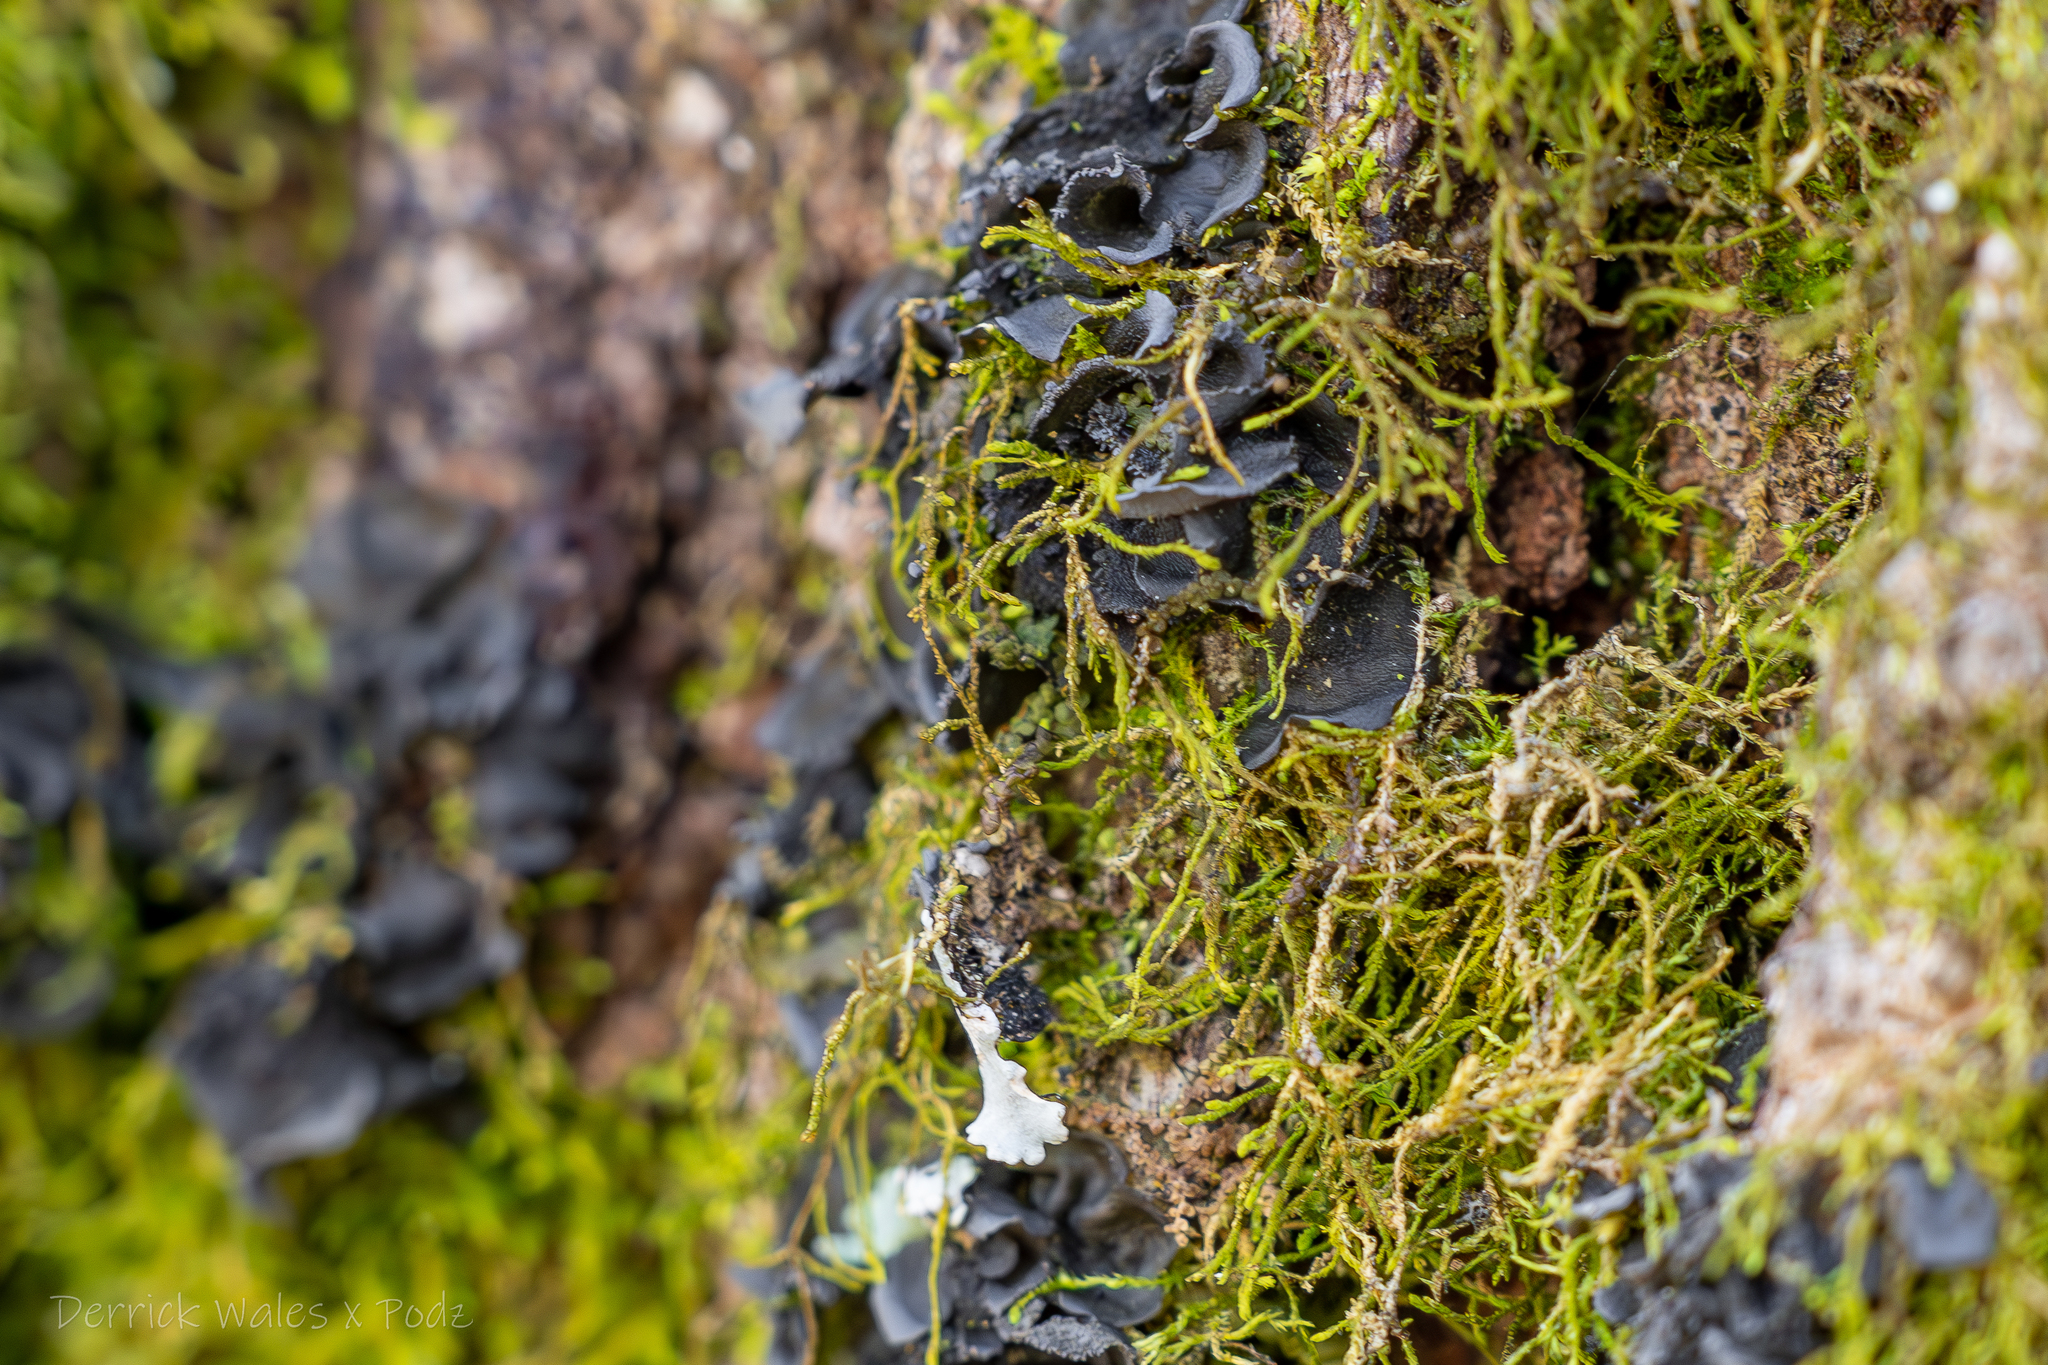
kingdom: Fungi
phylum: Ascomycota
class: Lecanoromycetes
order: Peltigerales
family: Collemataceae
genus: Leptogium
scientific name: Leptogium austroamericanum
